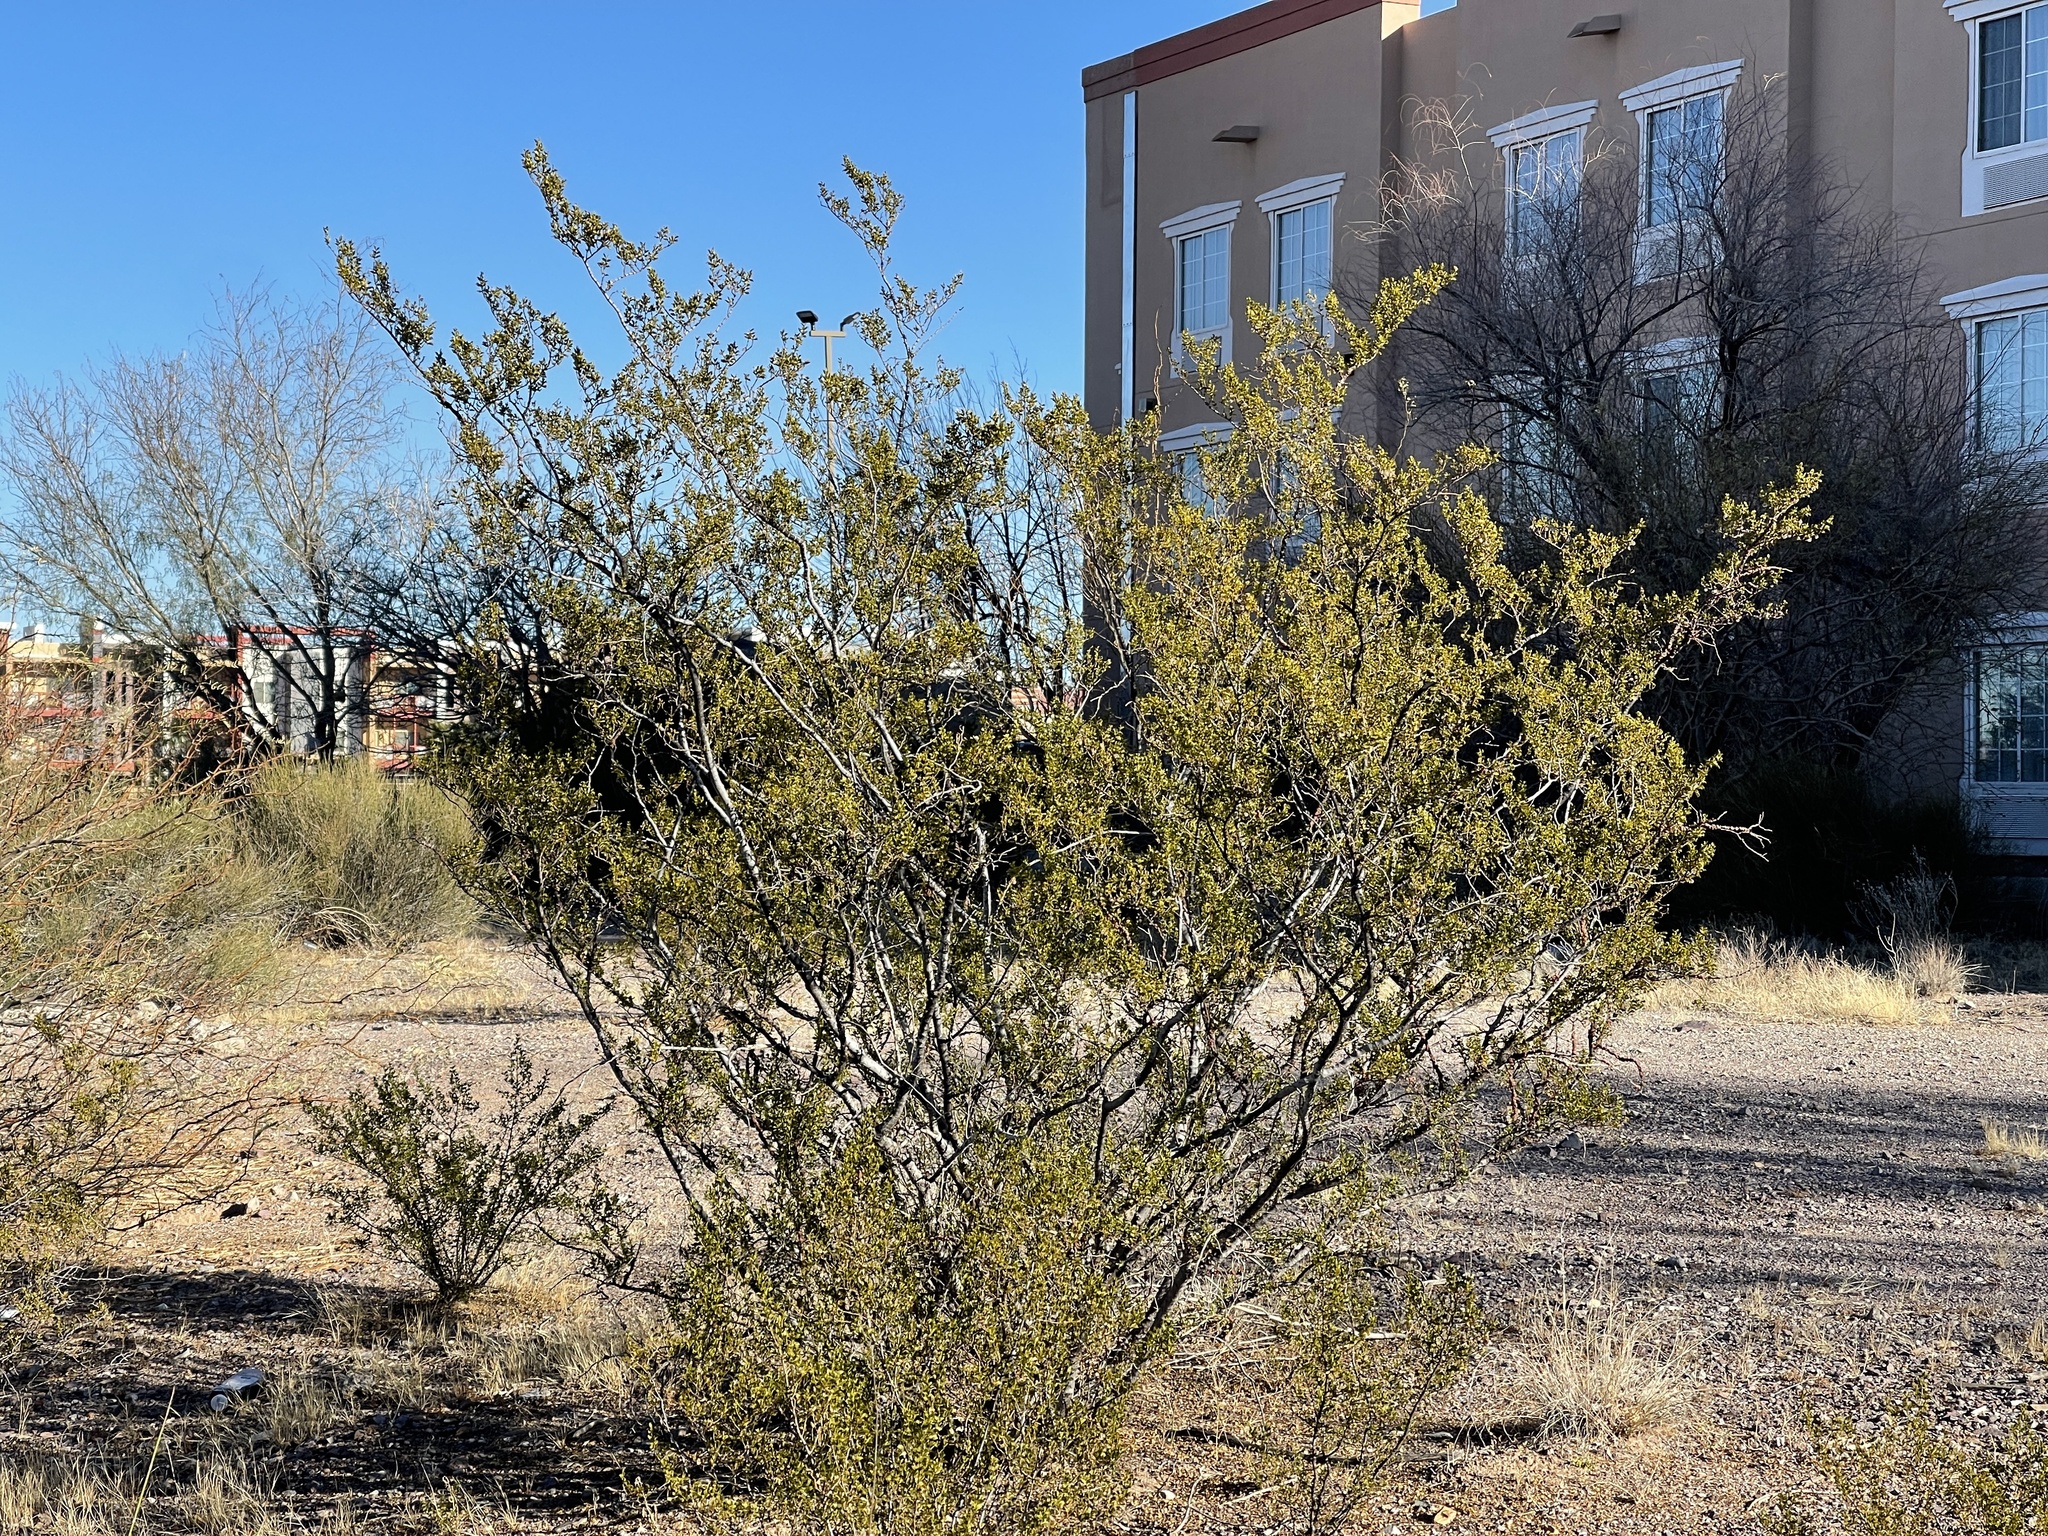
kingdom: Plantae
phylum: Tracheophyta
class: Magnoliopsida
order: Zygophyllales
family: Zygophyllaceae
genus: Larrea
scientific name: Larrea tridentata
